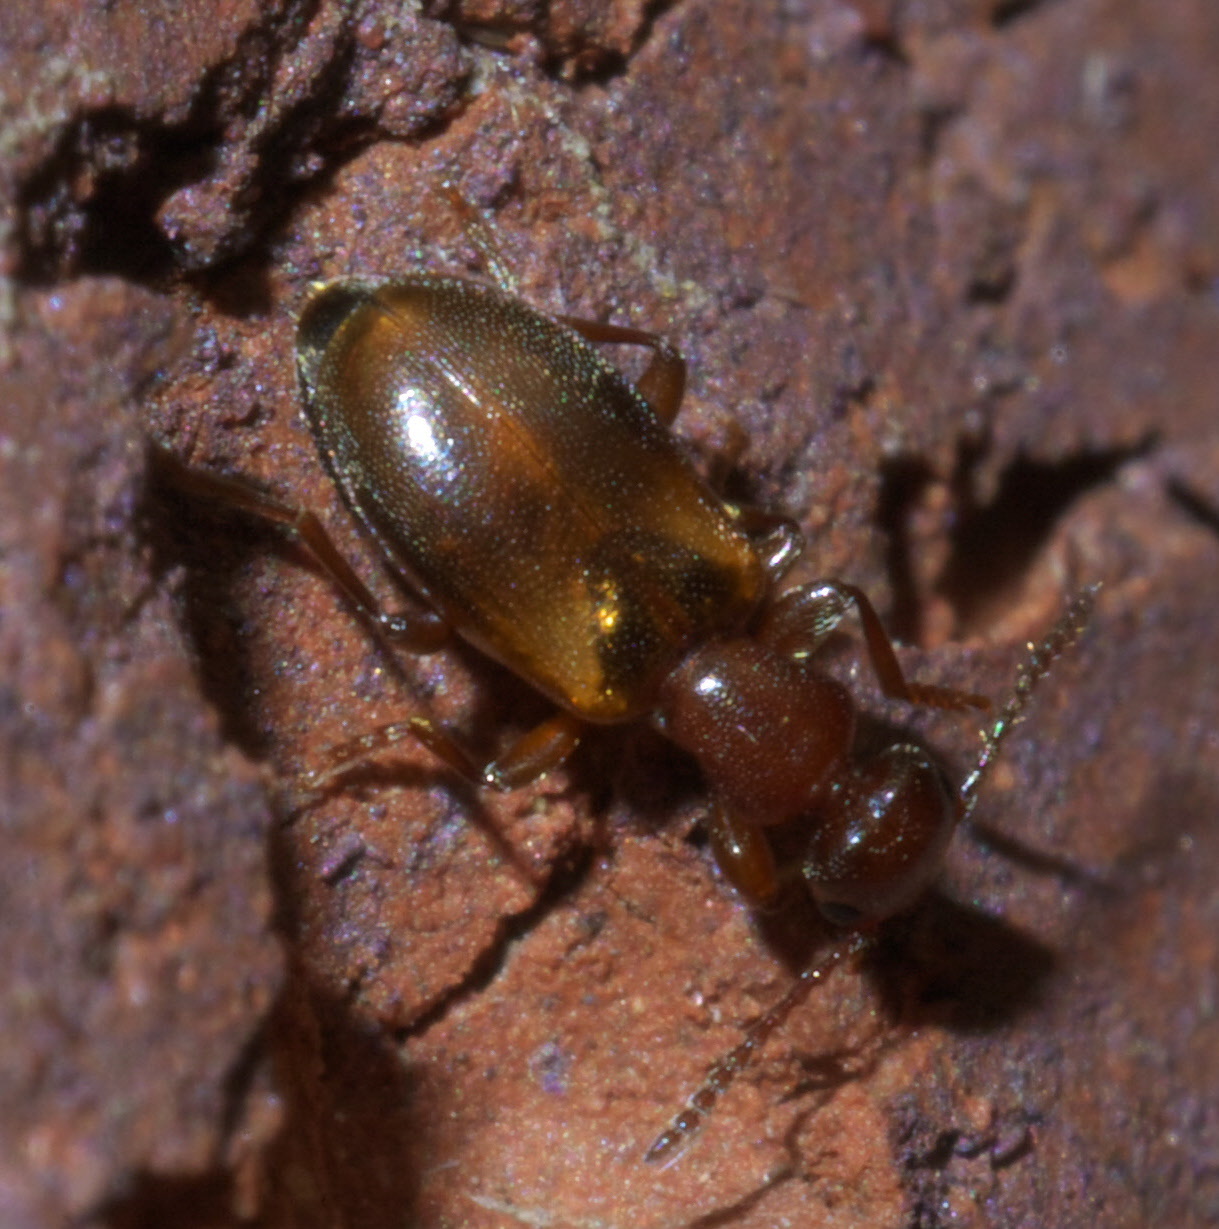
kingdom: Animalia
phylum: Arthropoda
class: Insecta
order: Coleoptera
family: Anthicidae
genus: Omonadus
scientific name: Omonadus floralis
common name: Narrownecked grain beetle
